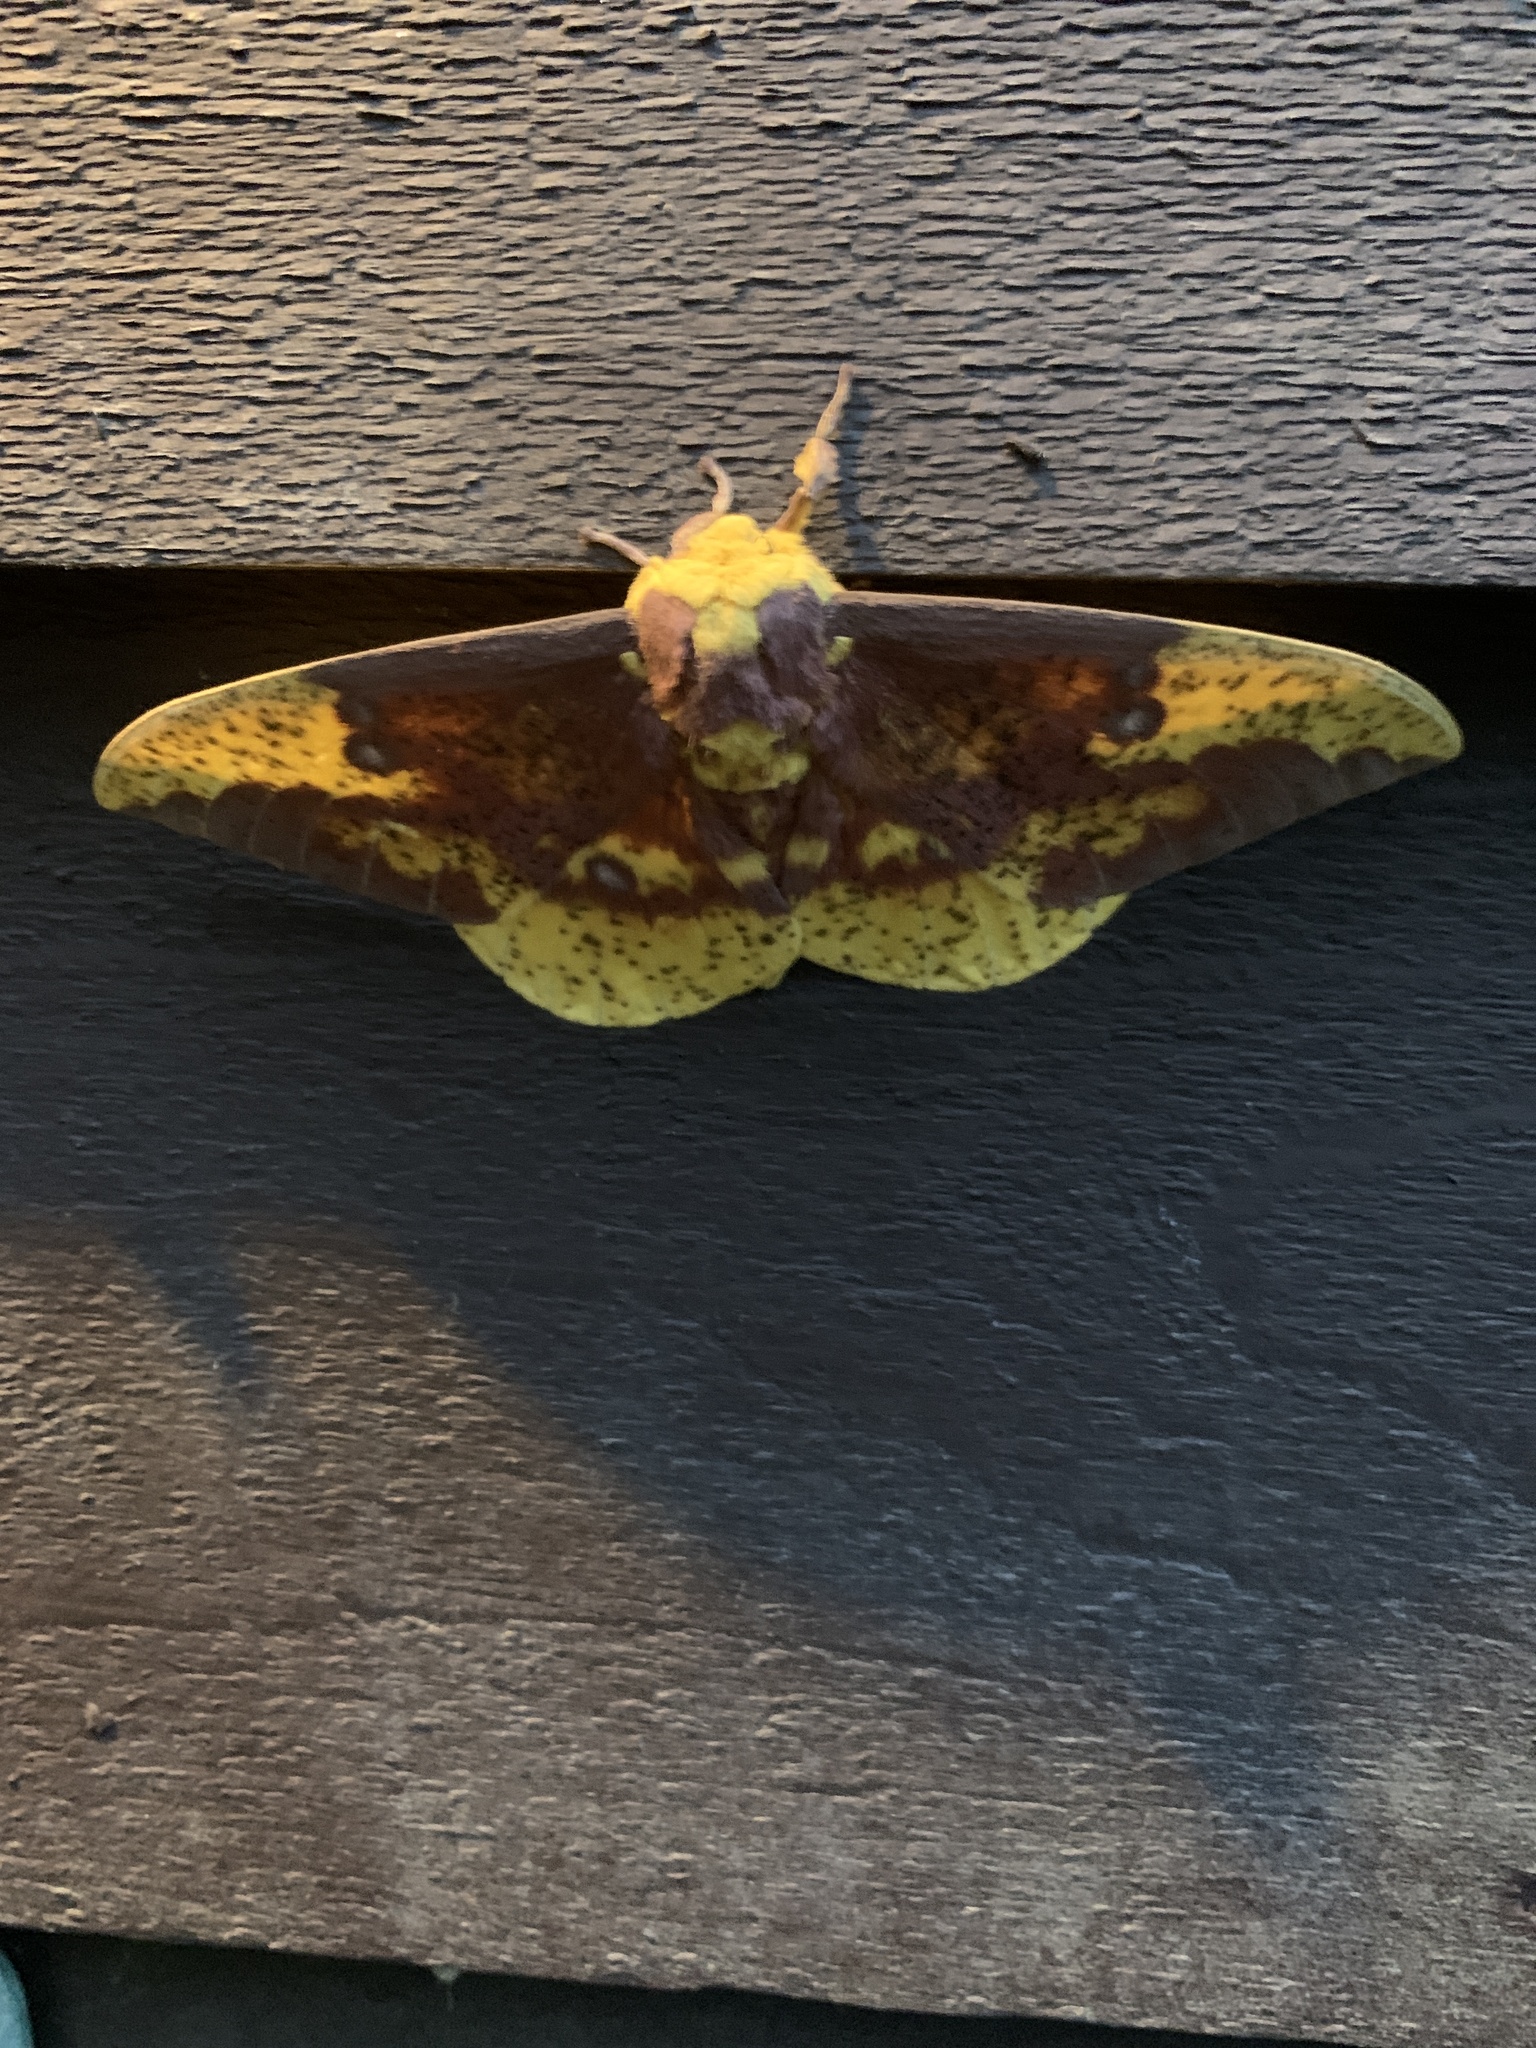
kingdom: Animalia
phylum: Arthropoda
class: Insecta
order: Lepidoptera
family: Saturniidae
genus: Eacles
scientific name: Eacles imperialis
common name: Imperial moth
